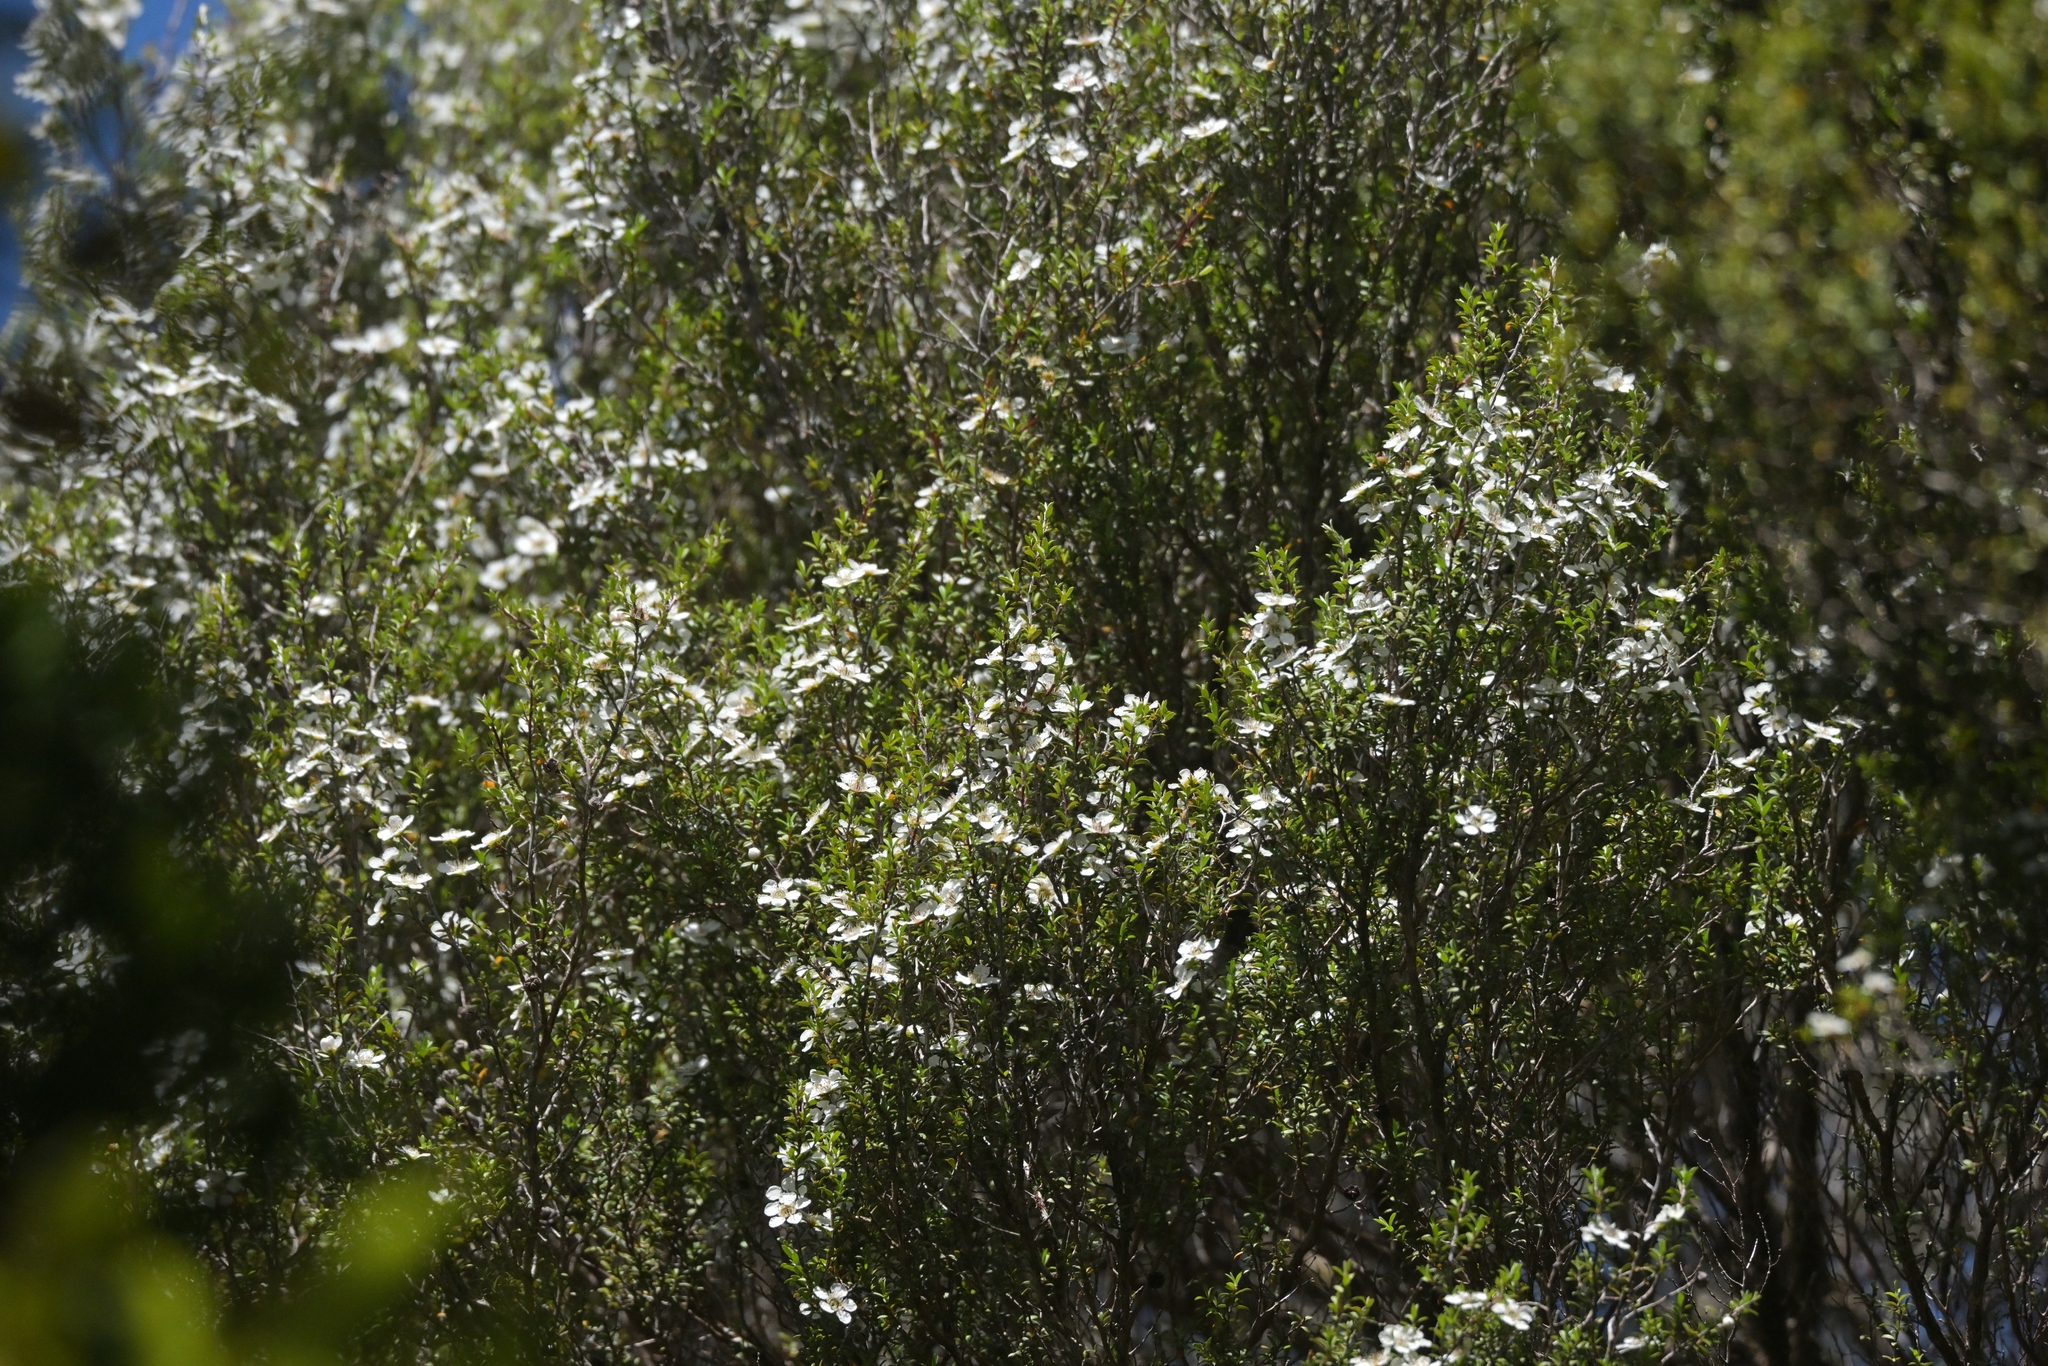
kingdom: Plantae
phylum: Tracheophyta
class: Magnoliopsida
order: Myrtales
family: Myrtaceae
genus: Leptospermum
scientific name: Leptospermum scoparium
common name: Broom tea-tree
